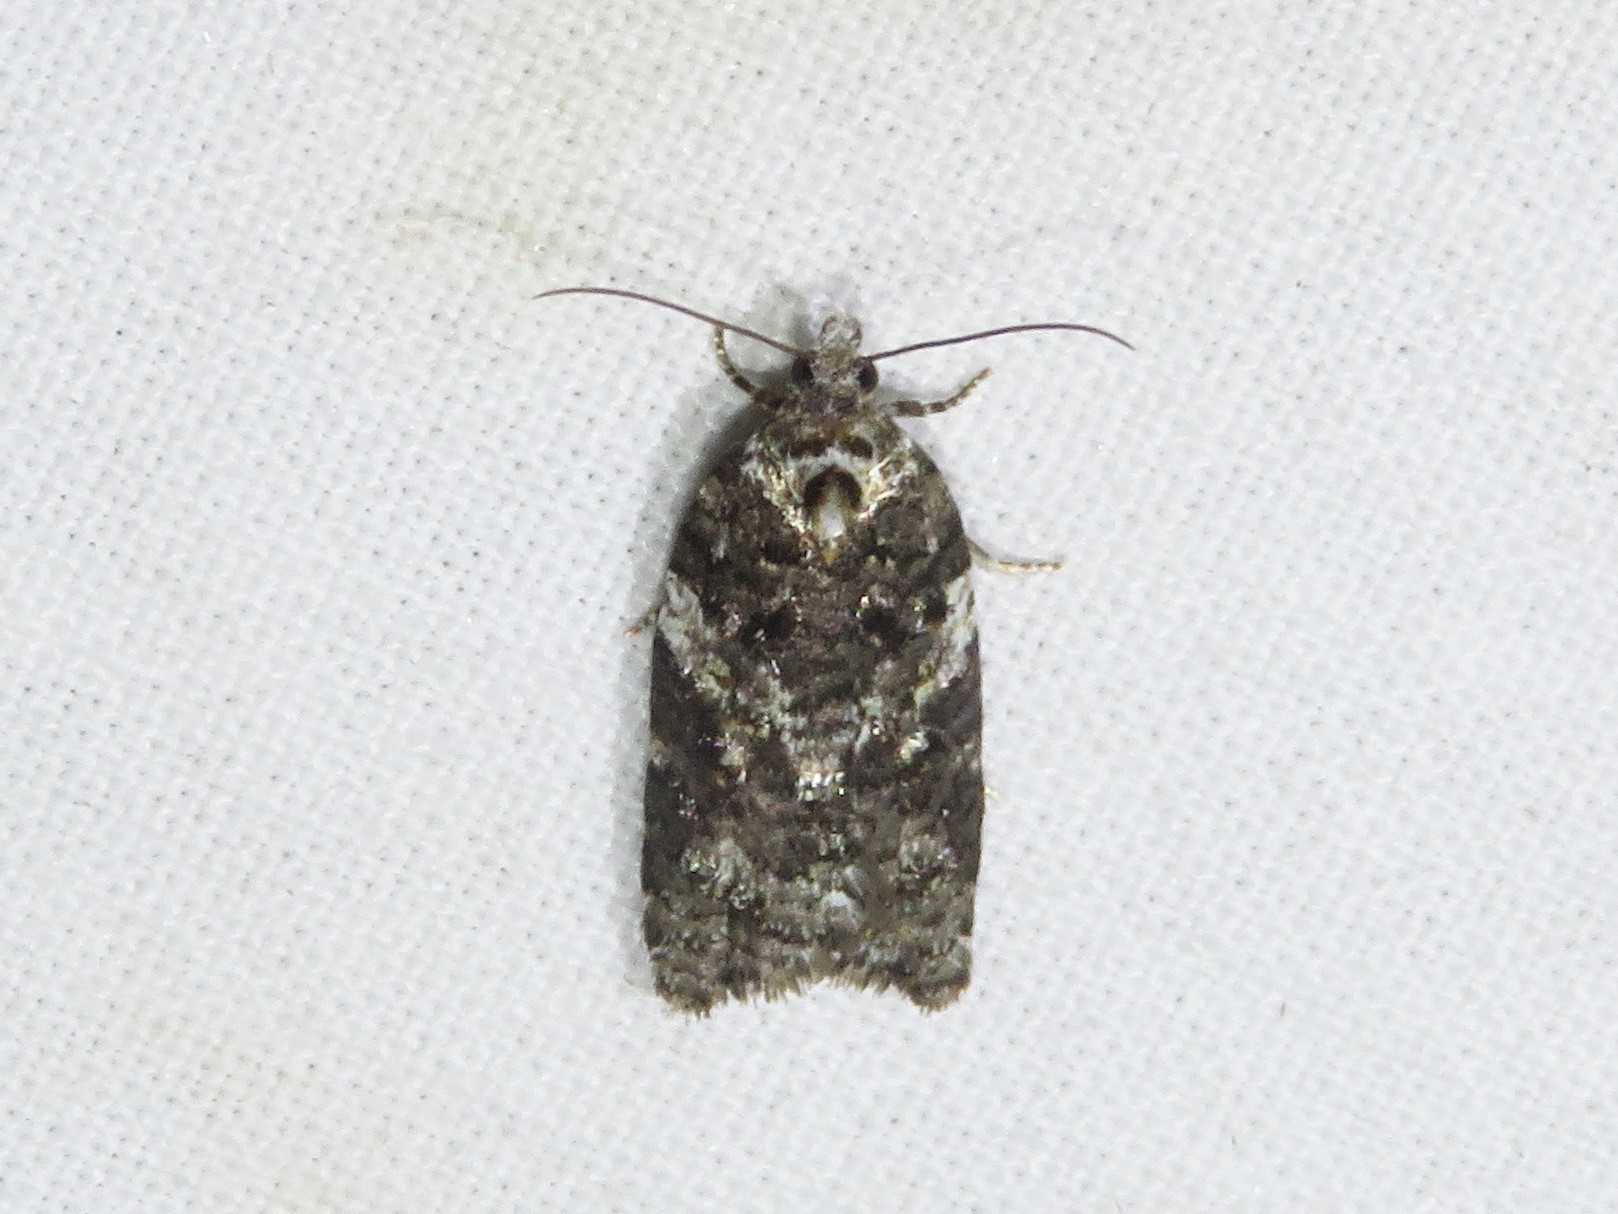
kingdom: Animalia
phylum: Arthropoda
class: Insecta
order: Lepidoptera
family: Tortricidae
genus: Acleris
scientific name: Acleris variana
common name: Eastern black-headed budworm moth
